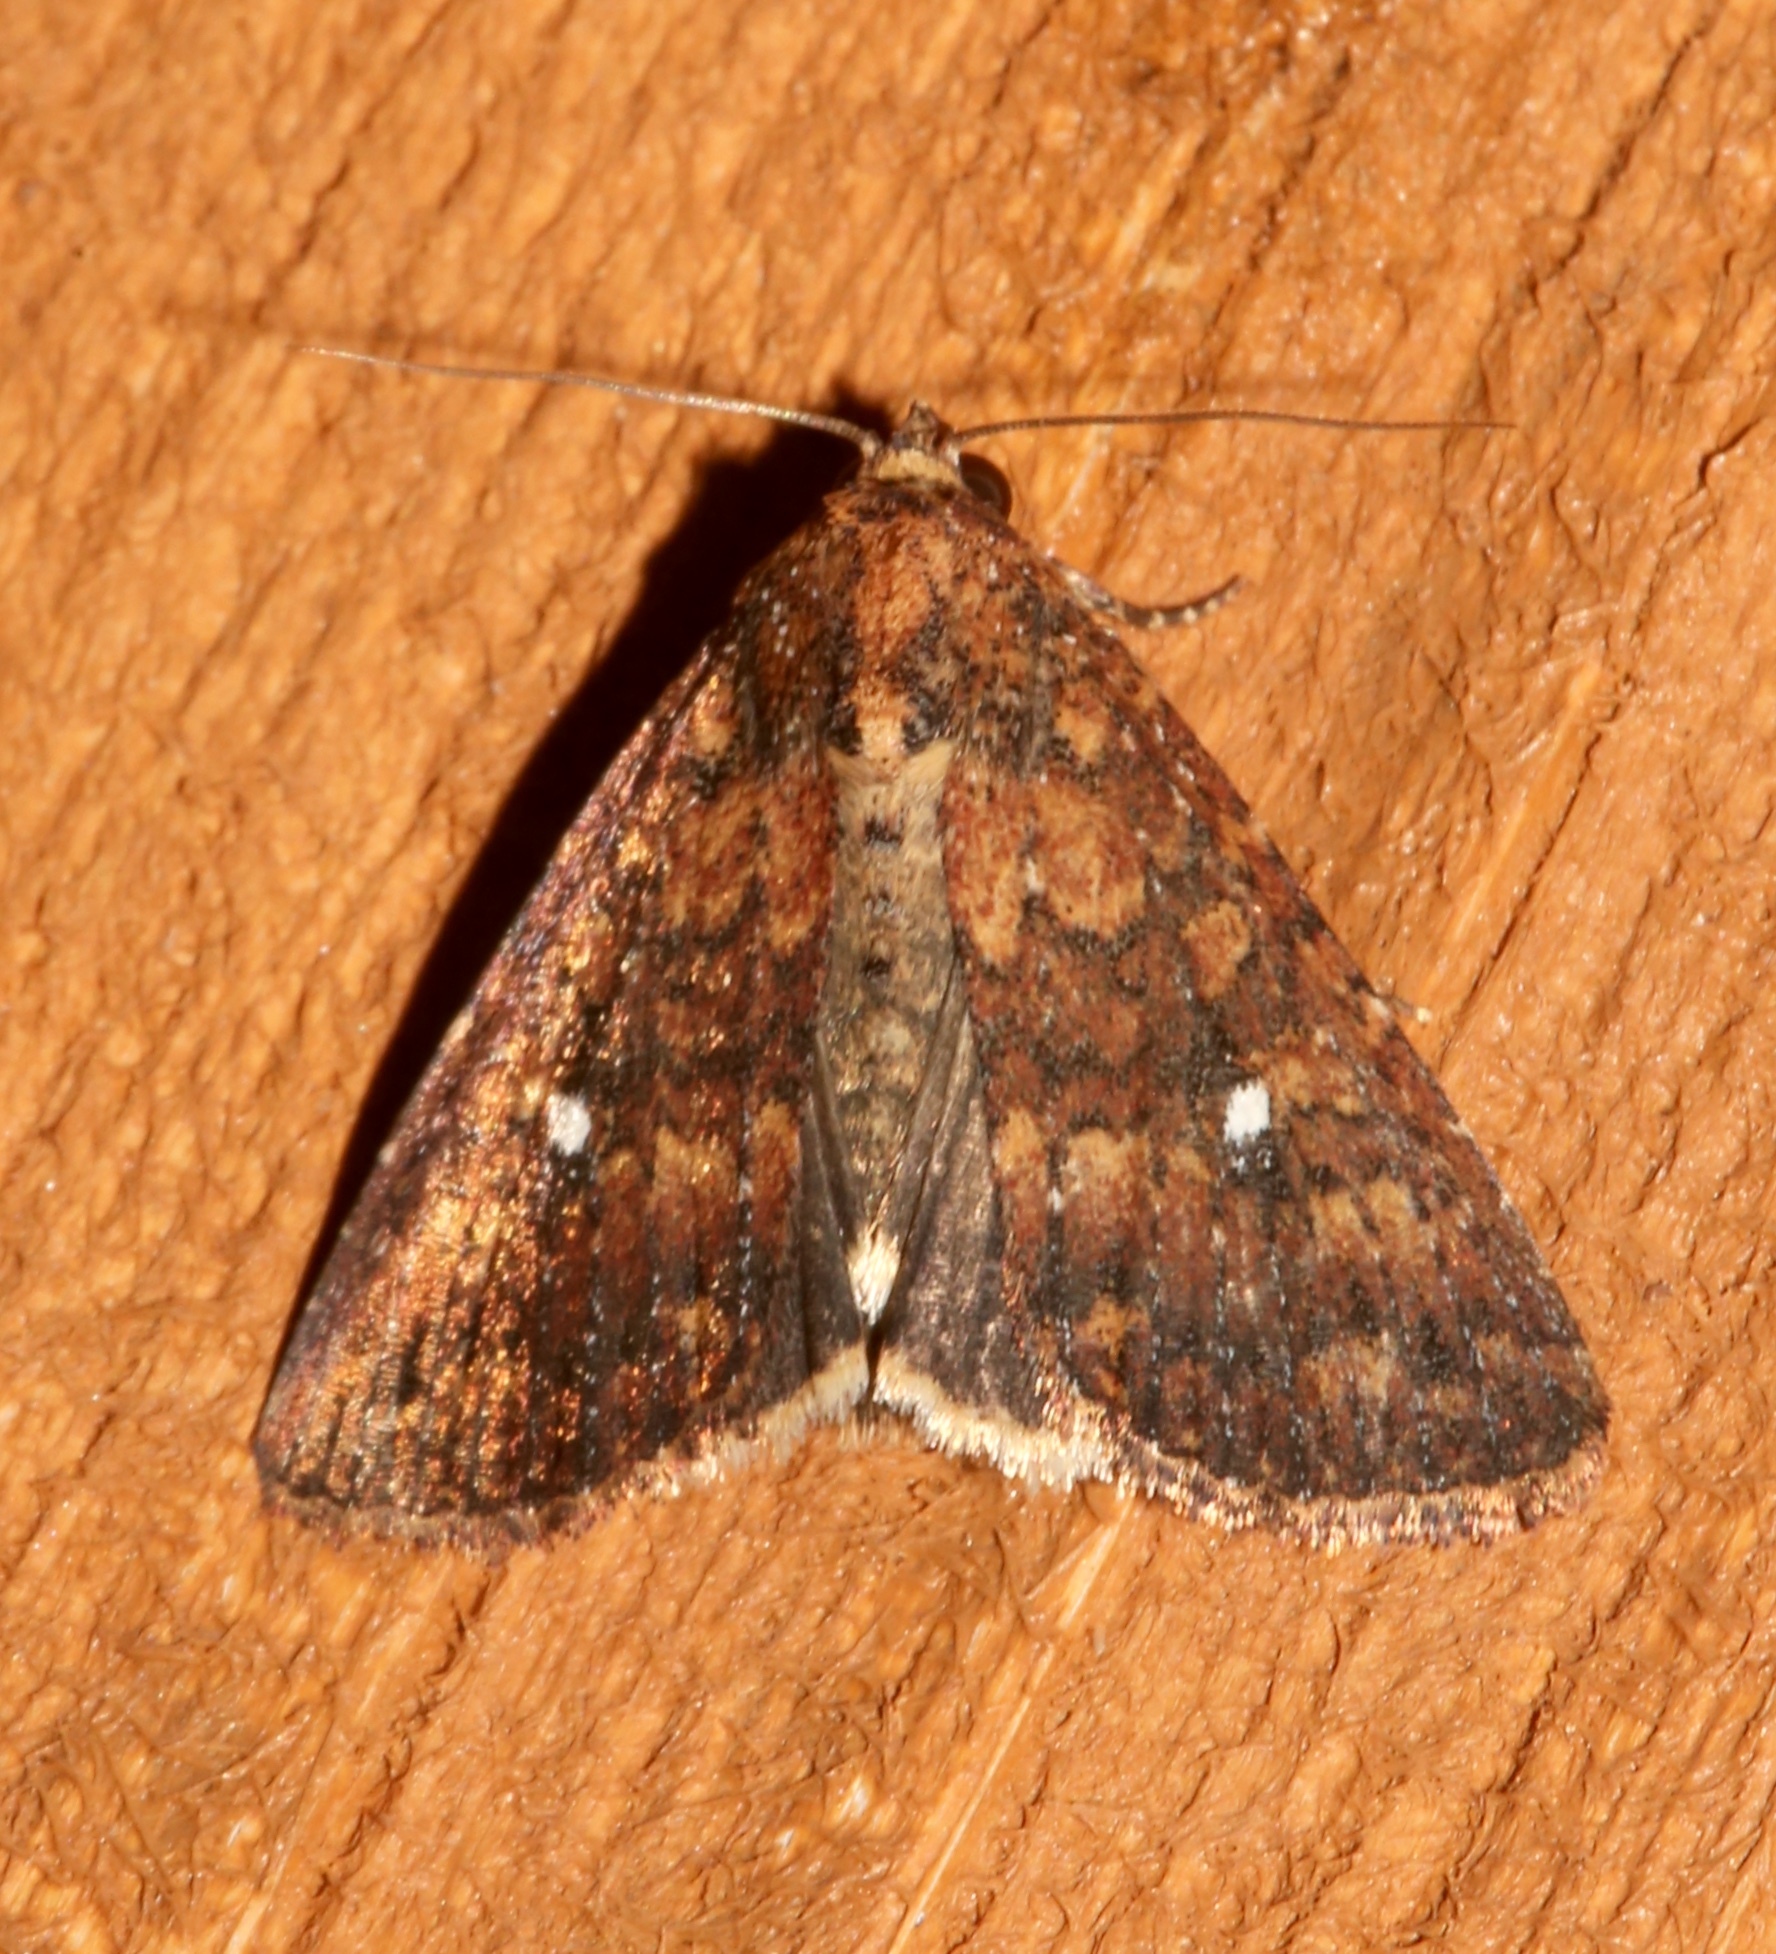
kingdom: Animalia
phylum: Arthropoda
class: Insecta
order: Lepidoptera
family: Noctuidae
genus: Condica
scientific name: Condica mobilis
